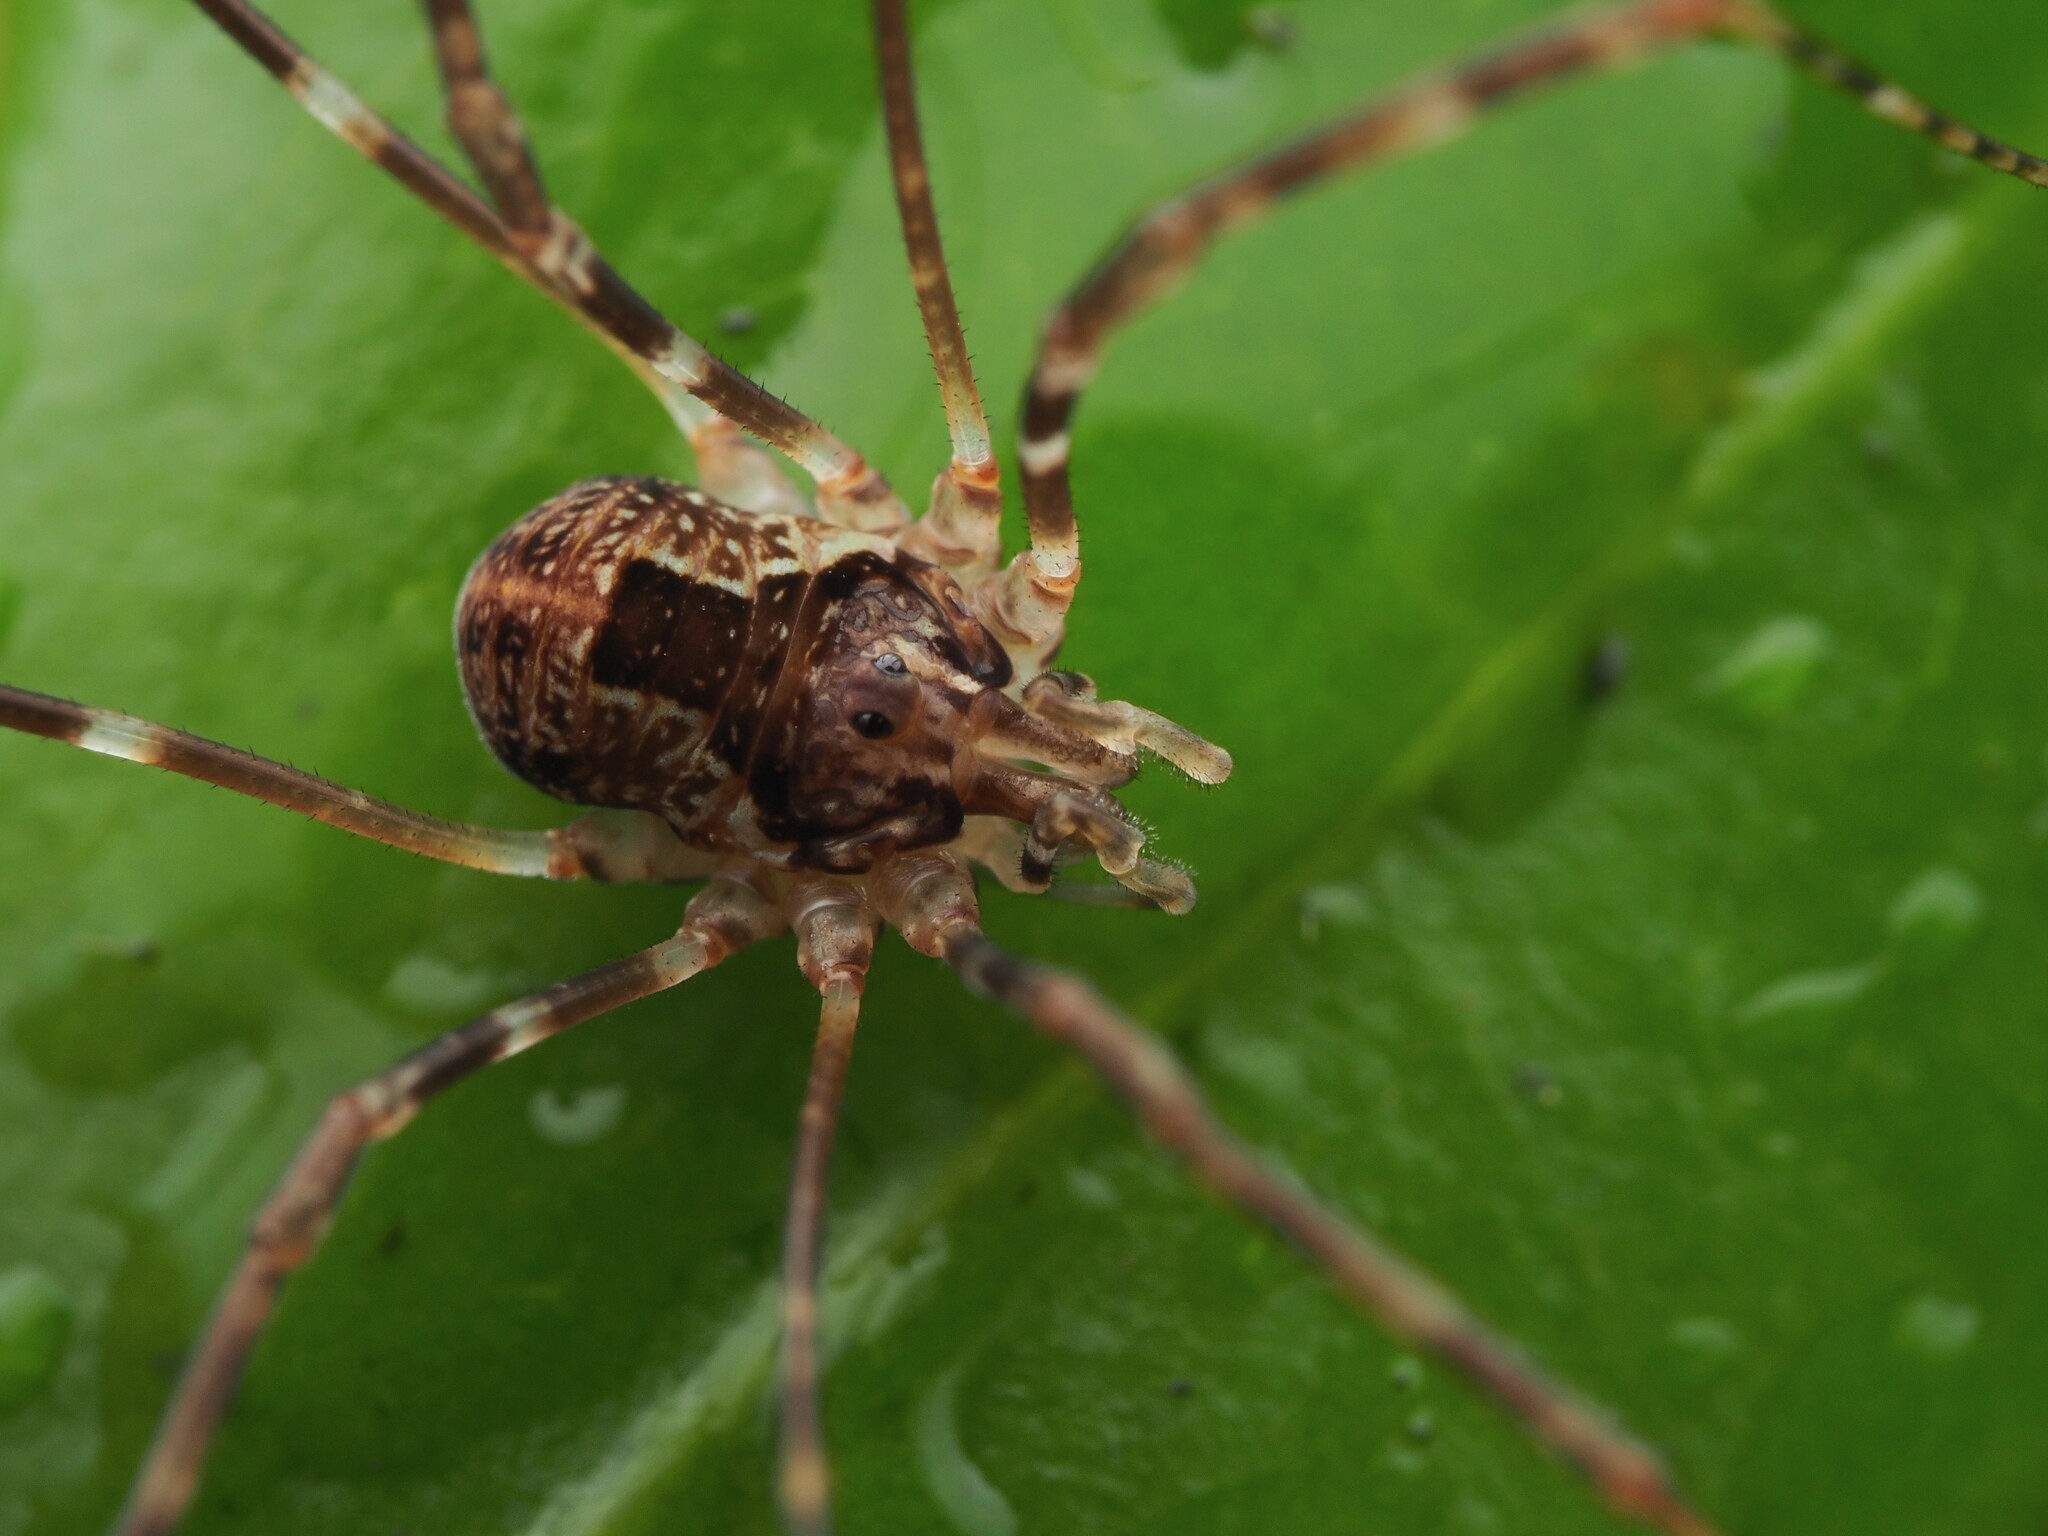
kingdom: Animalia
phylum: Arthropoda
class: Arachnida
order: Opiliones
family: Neopilionidae
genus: Forsteropsalis
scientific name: Forsteropsalis pureora
